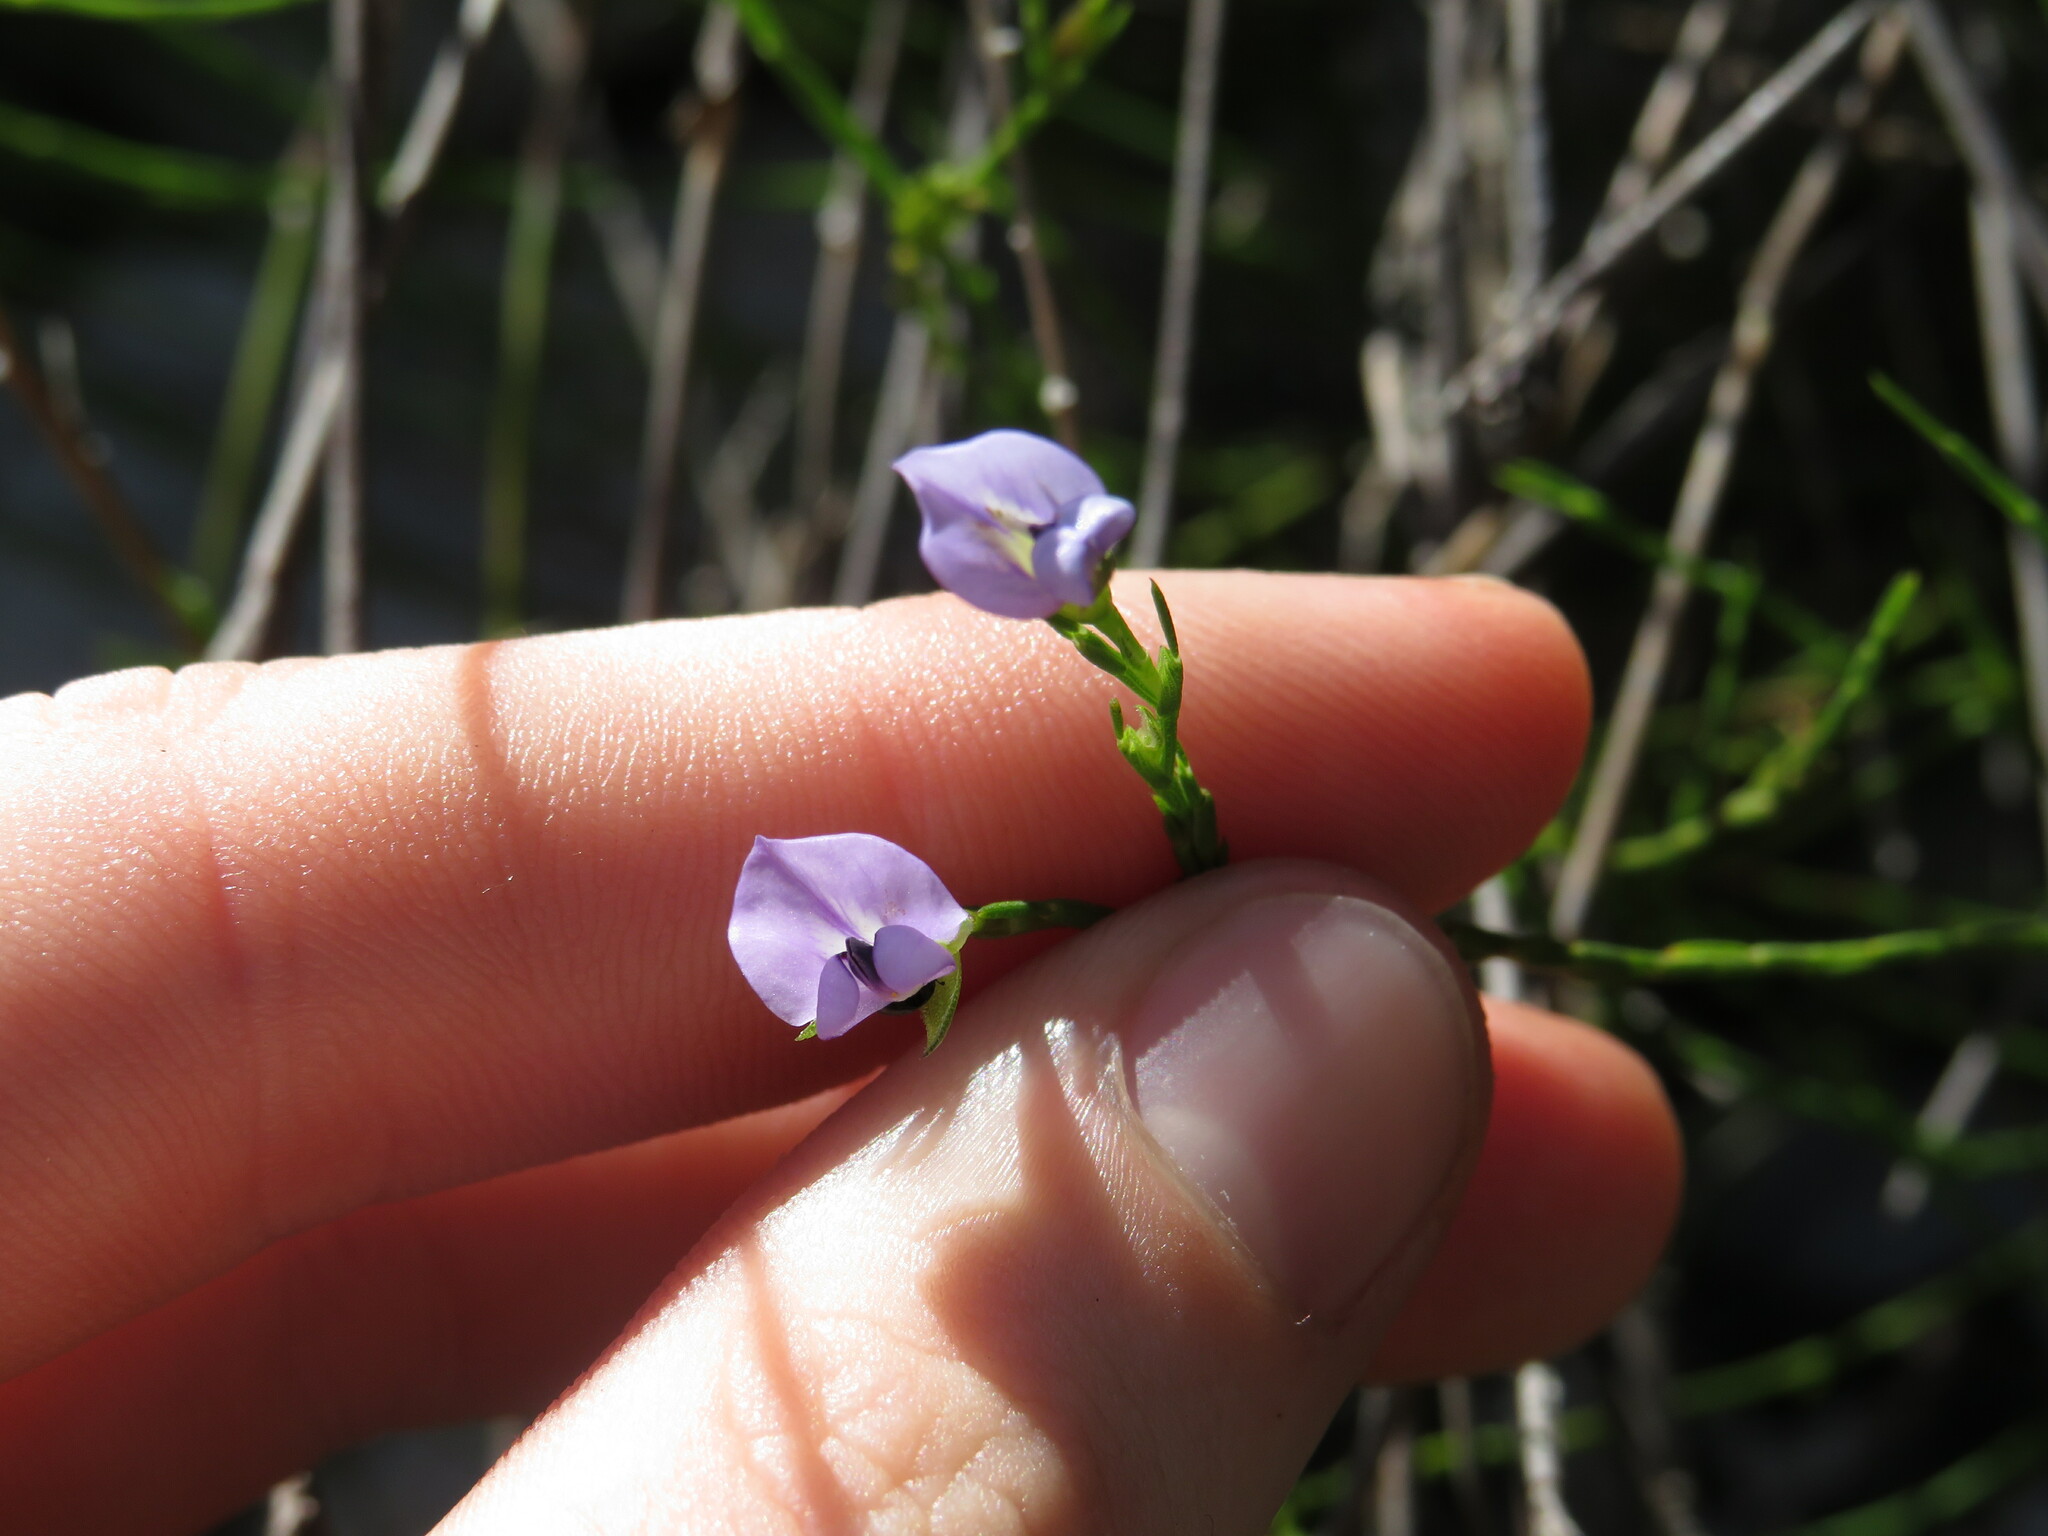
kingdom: Plantae
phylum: Tracheophyta
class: Magnoliopsida
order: Fabales
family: Fabaceae
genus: Psoralea
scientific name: Psoralea restioides
